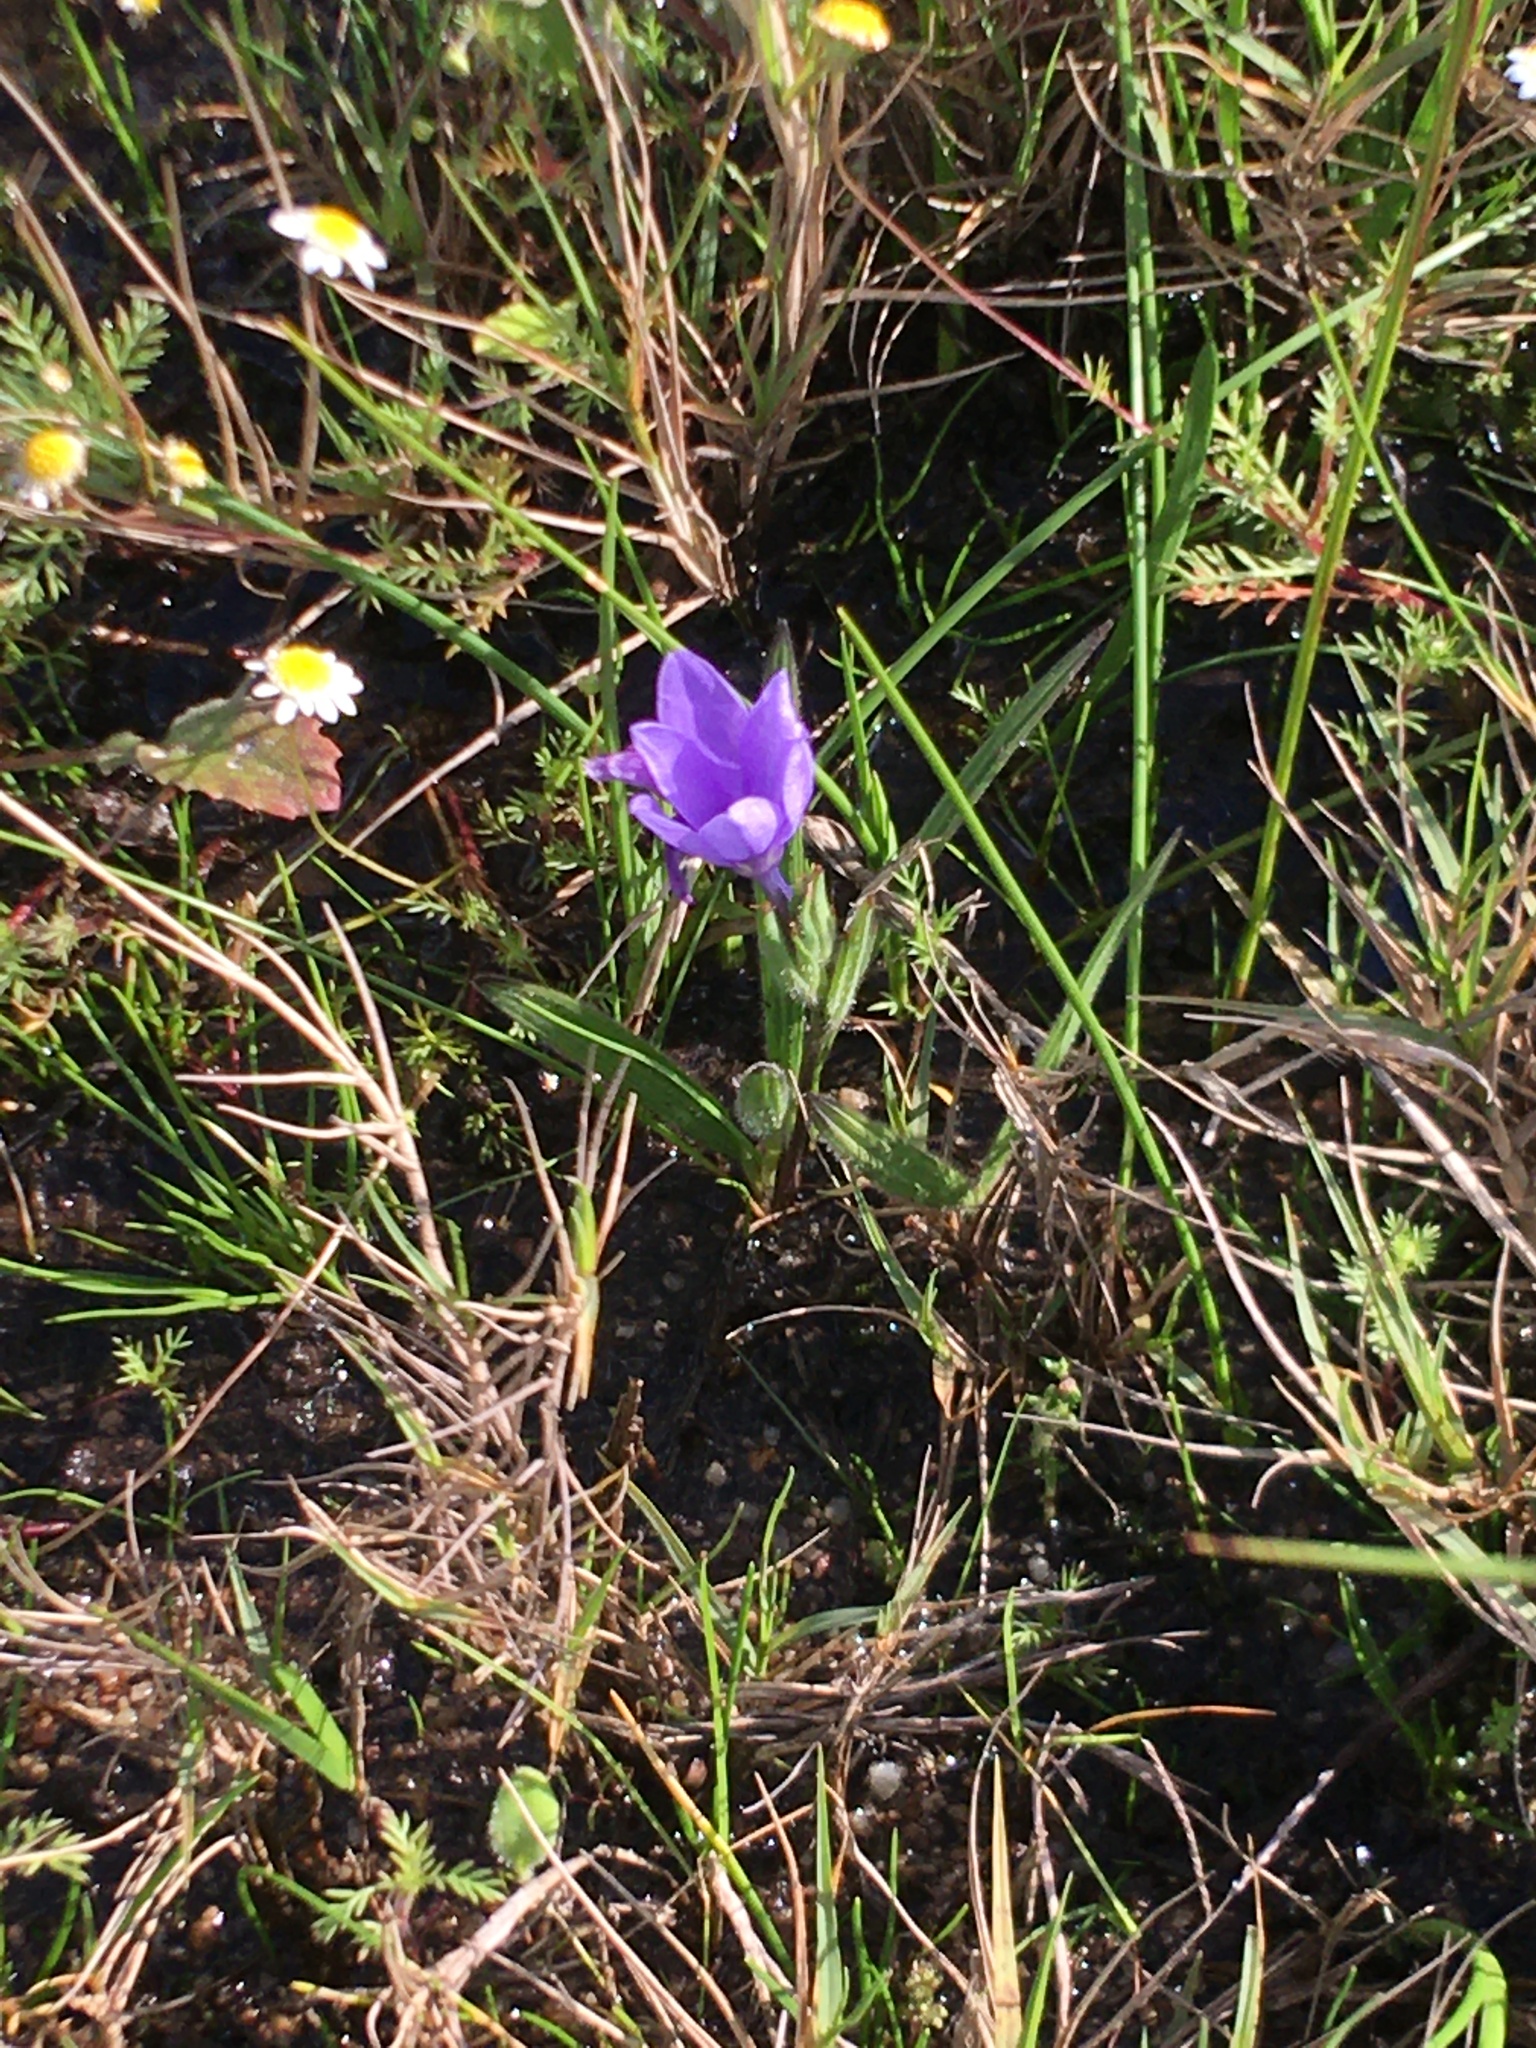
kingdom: Plantae
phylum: Tracheophyta
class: Liliopsida
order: Asparagales
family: Iridaceae
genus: Babiana
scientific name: Babiana villosula
